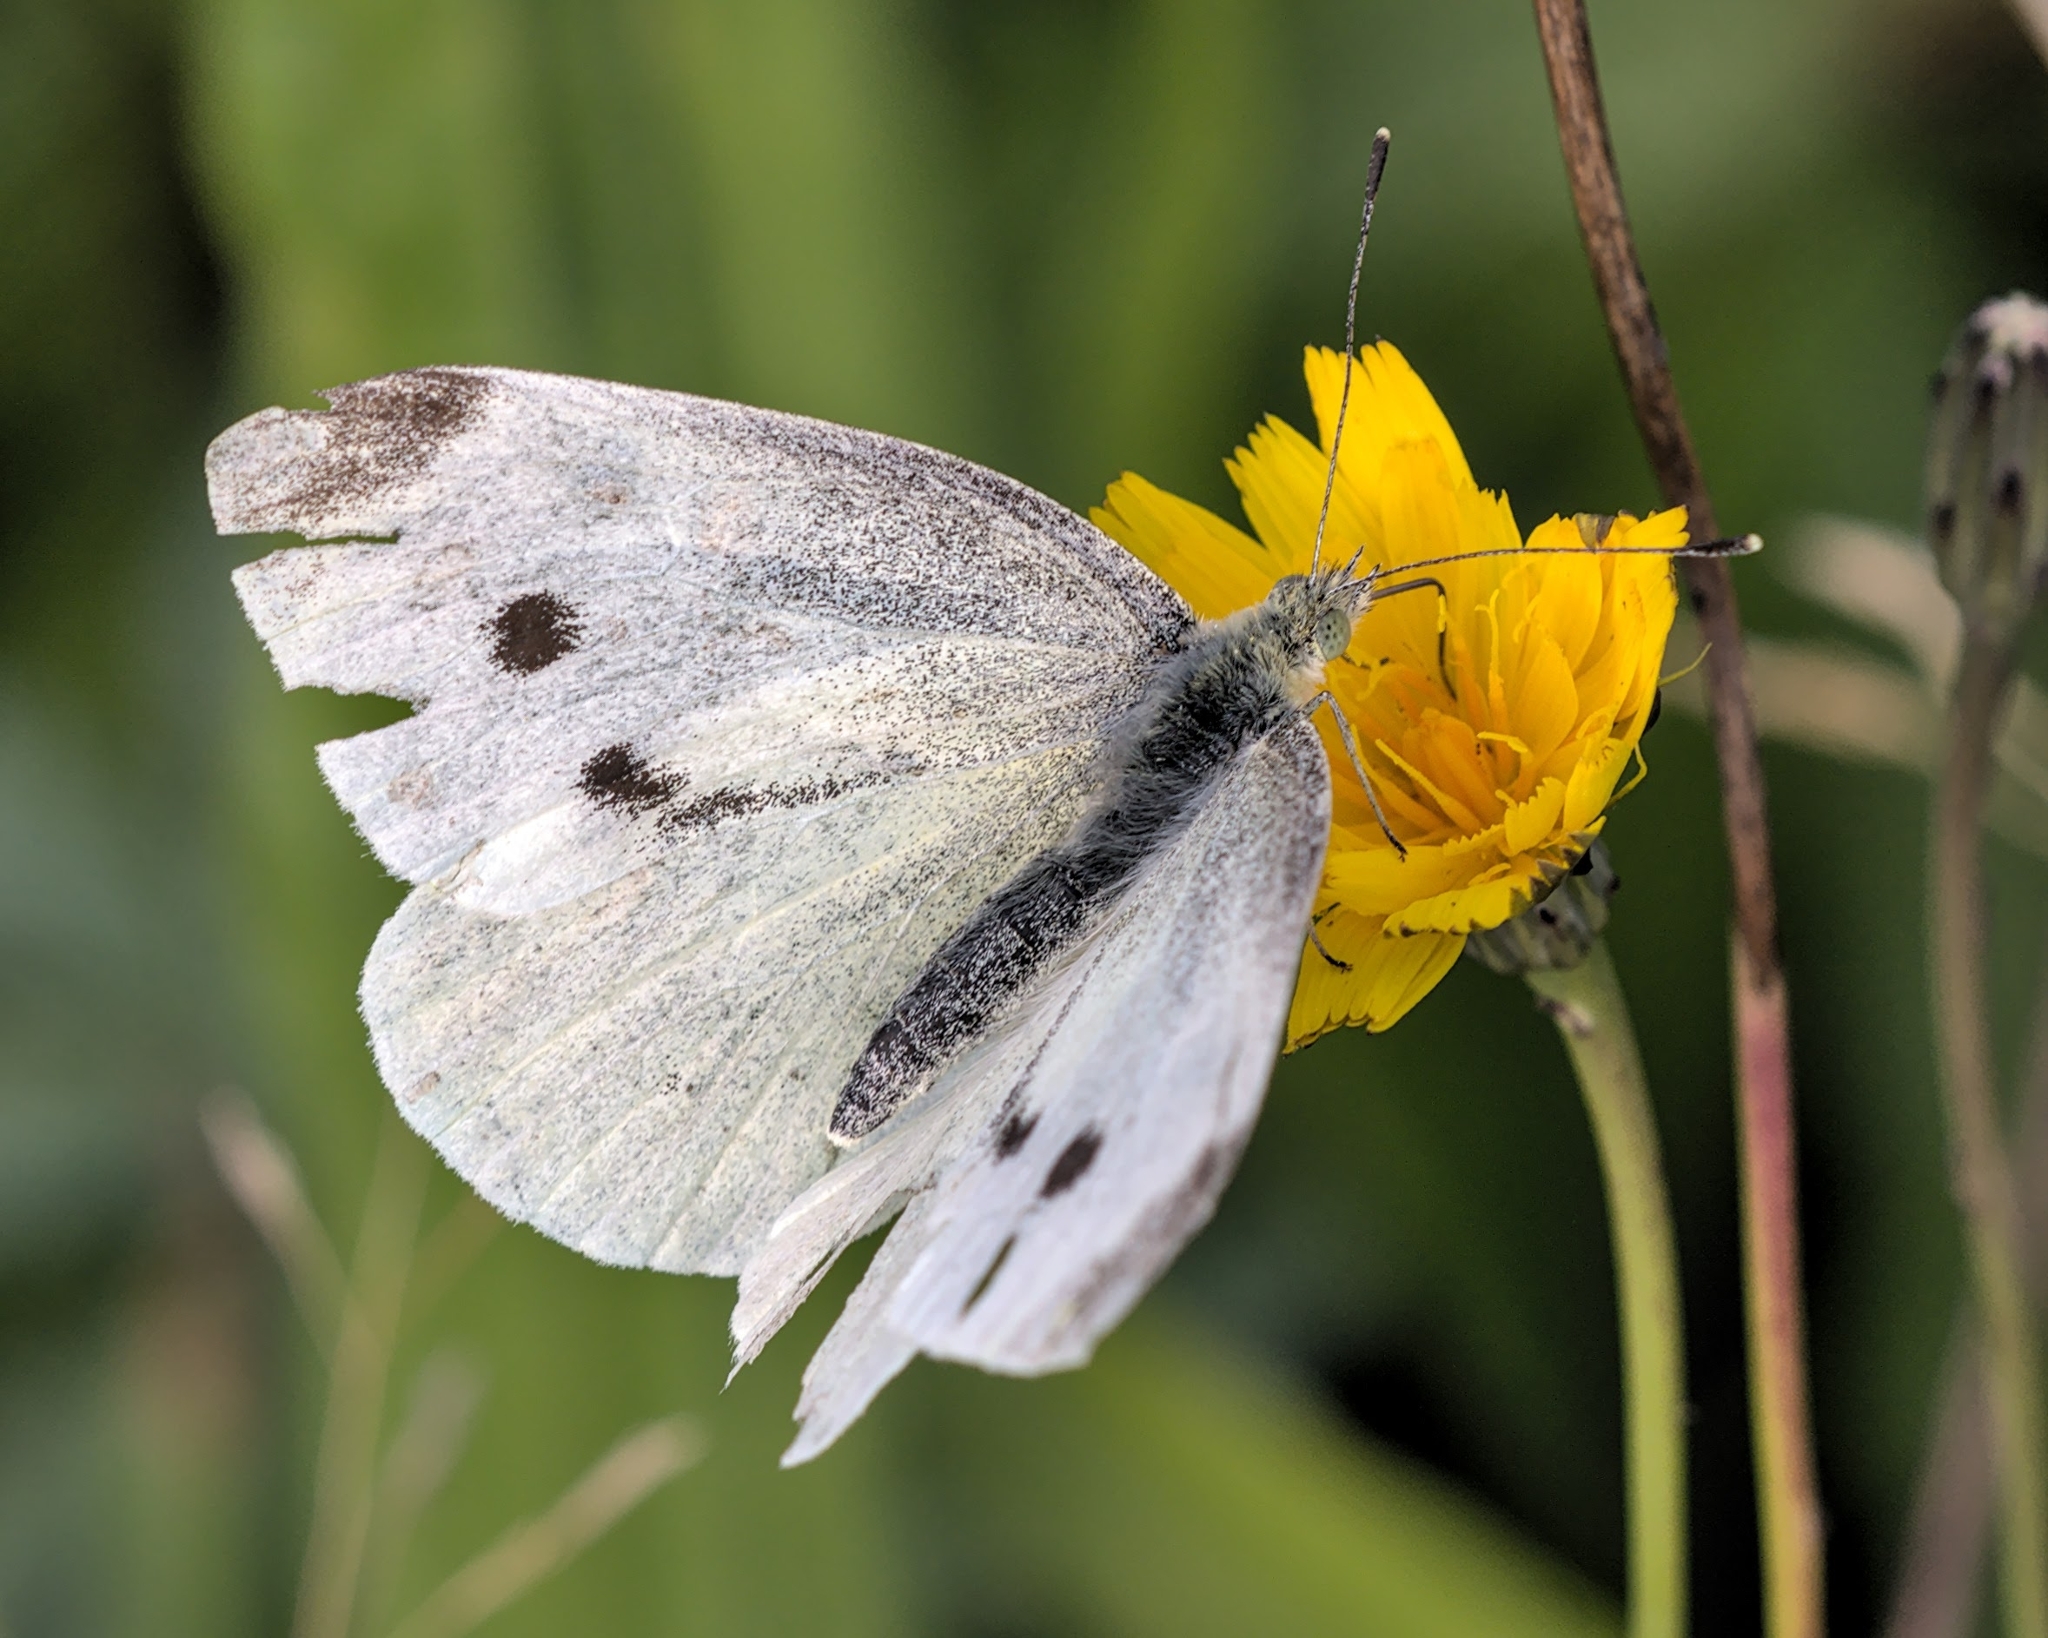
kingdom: Animalia
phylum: Arthropoda
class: Insecta
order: Lepidoptera
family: Pieridae
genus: Pieris
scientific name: Pieris rapae
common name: Small white
